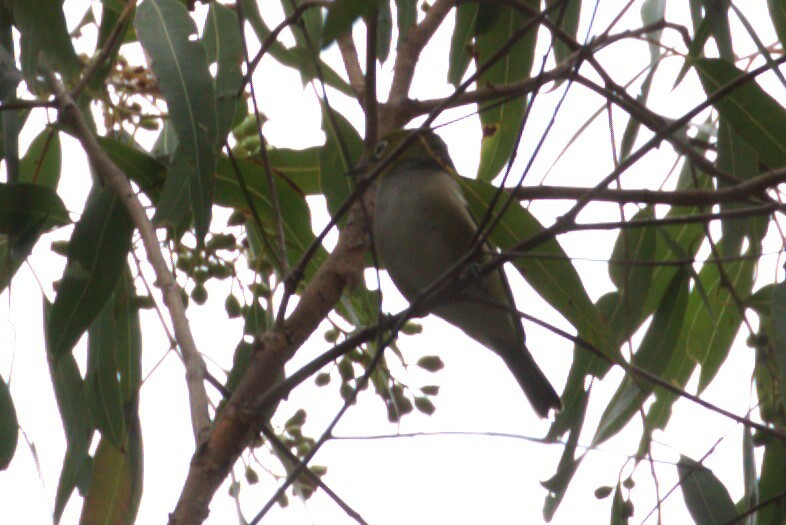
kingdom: Animalia
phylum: Chordata
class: Aves
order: Passeriformes
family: Zosteropidae
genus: Zosterops
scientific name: Zosterops lateralis
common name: Silvereye
